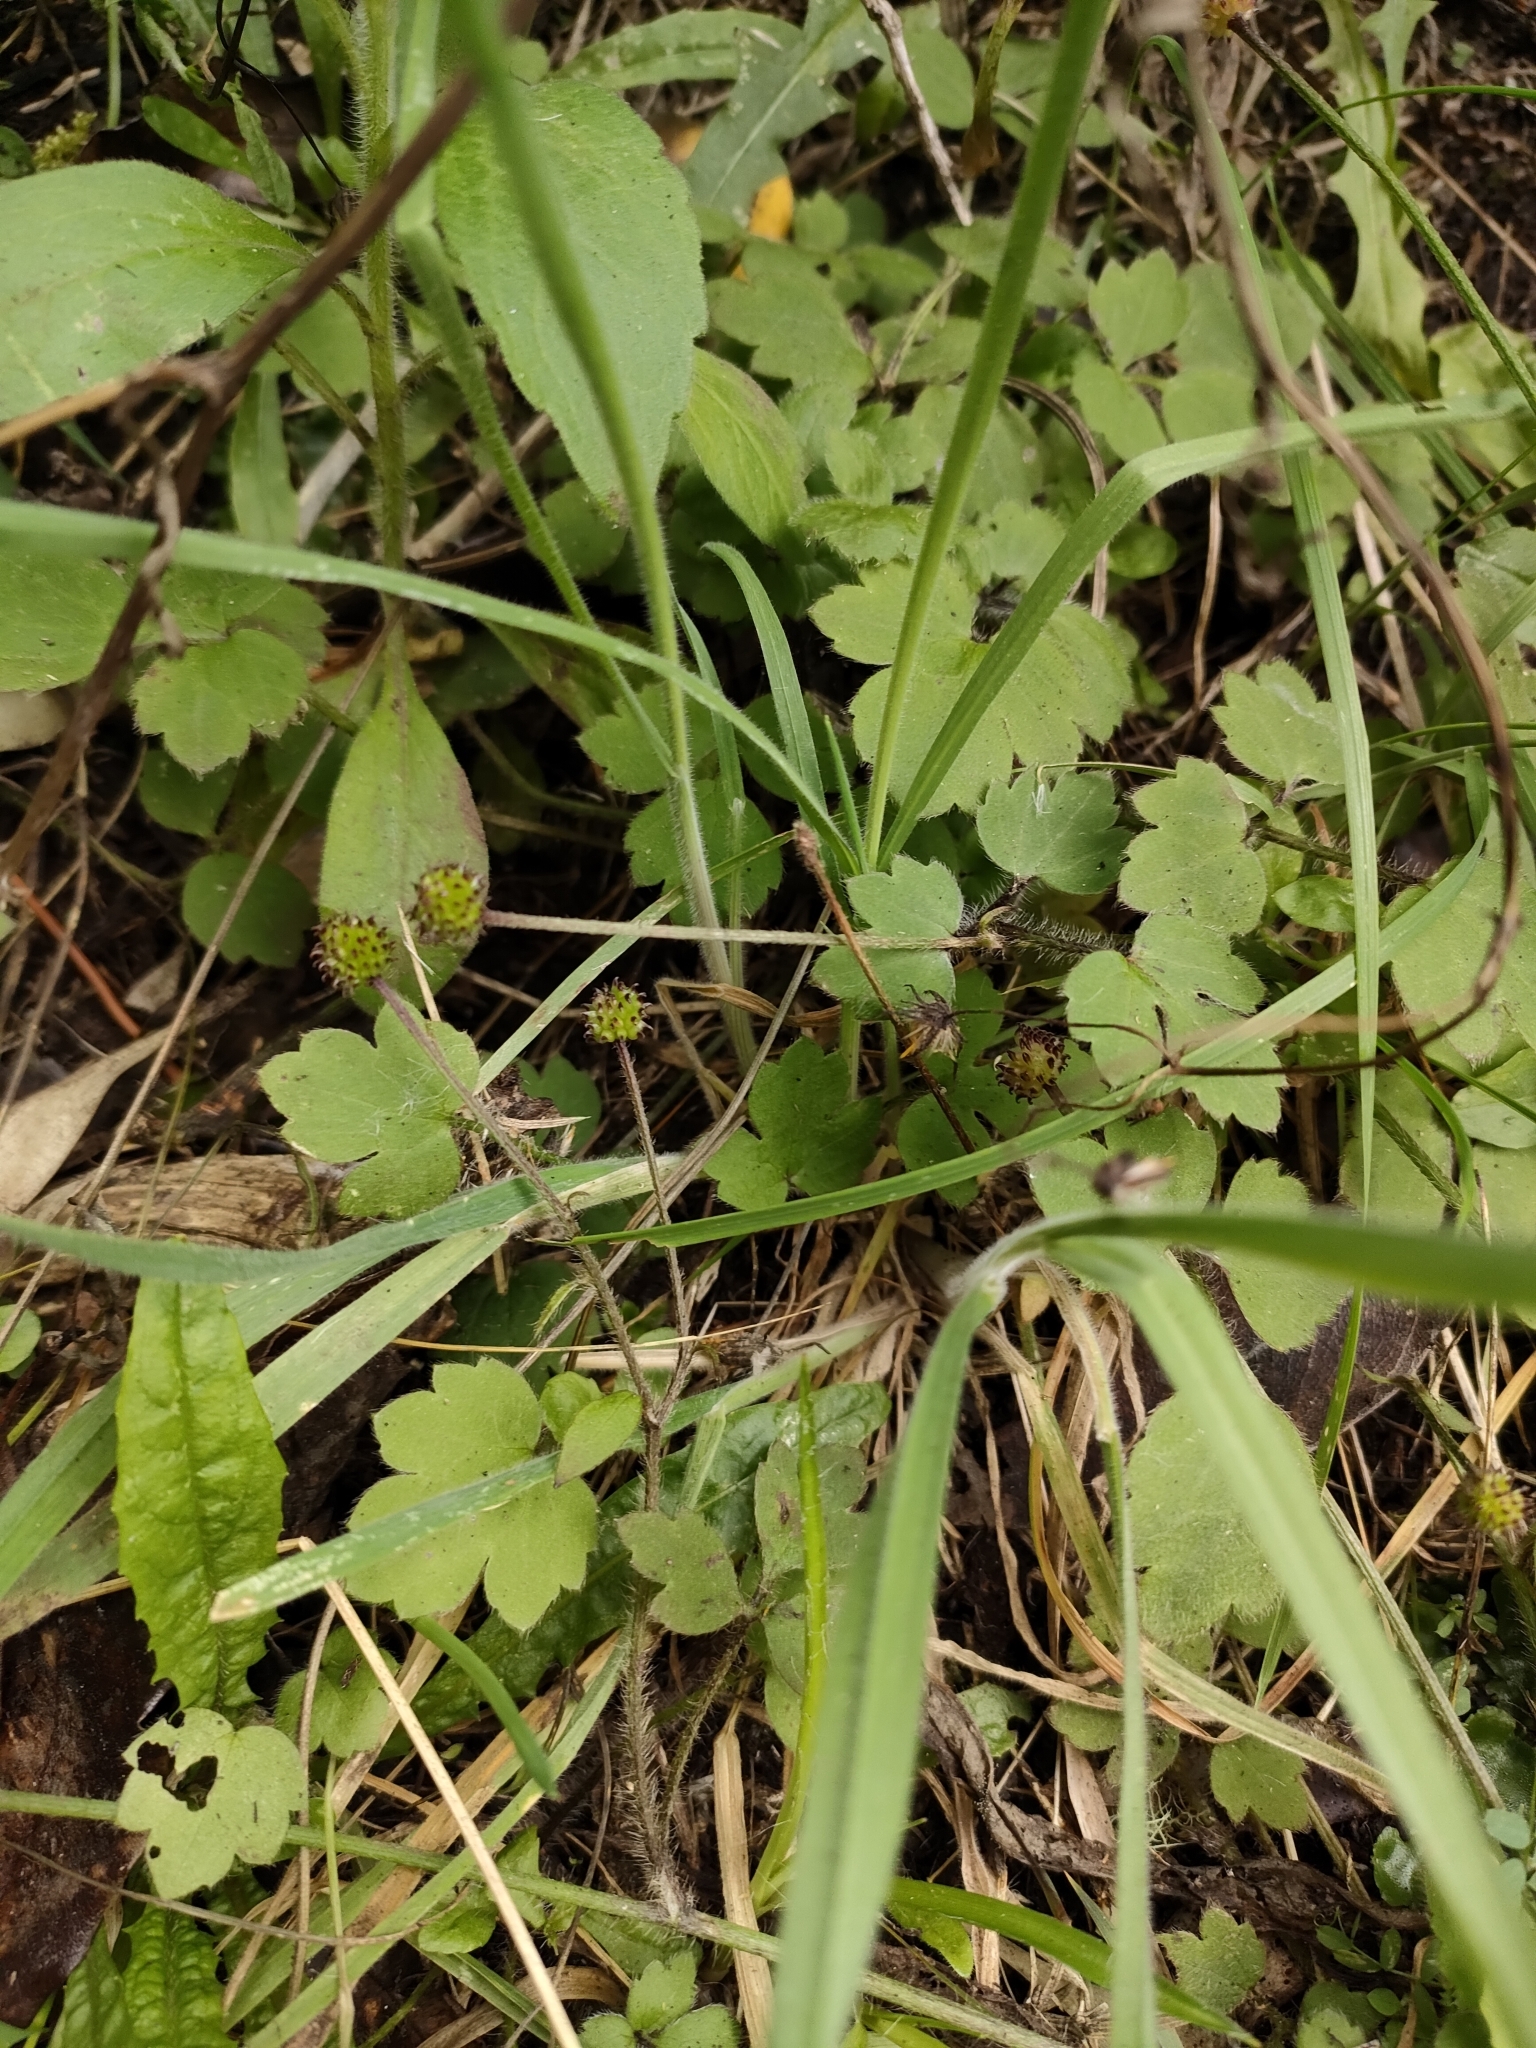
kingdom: Plantae
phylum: Tracheophyta
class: Magnoliopsida
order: Ranunculales
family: Ranunculaceae
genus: Ranunculus
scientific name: Ranunculus reflexus
